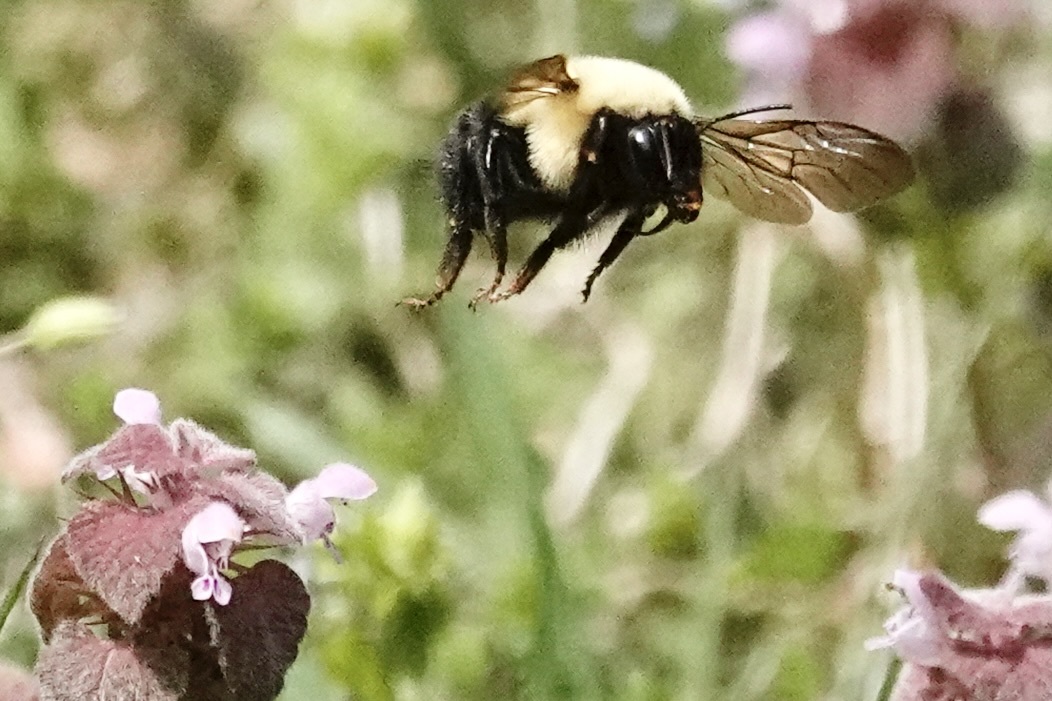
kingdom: Animalia
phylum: Arthropoda
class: Insecta
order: Hymenoptera
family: Apidae
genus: Bombus
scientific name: Bombus bimaculatus
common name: Two-spotted bumble bee
